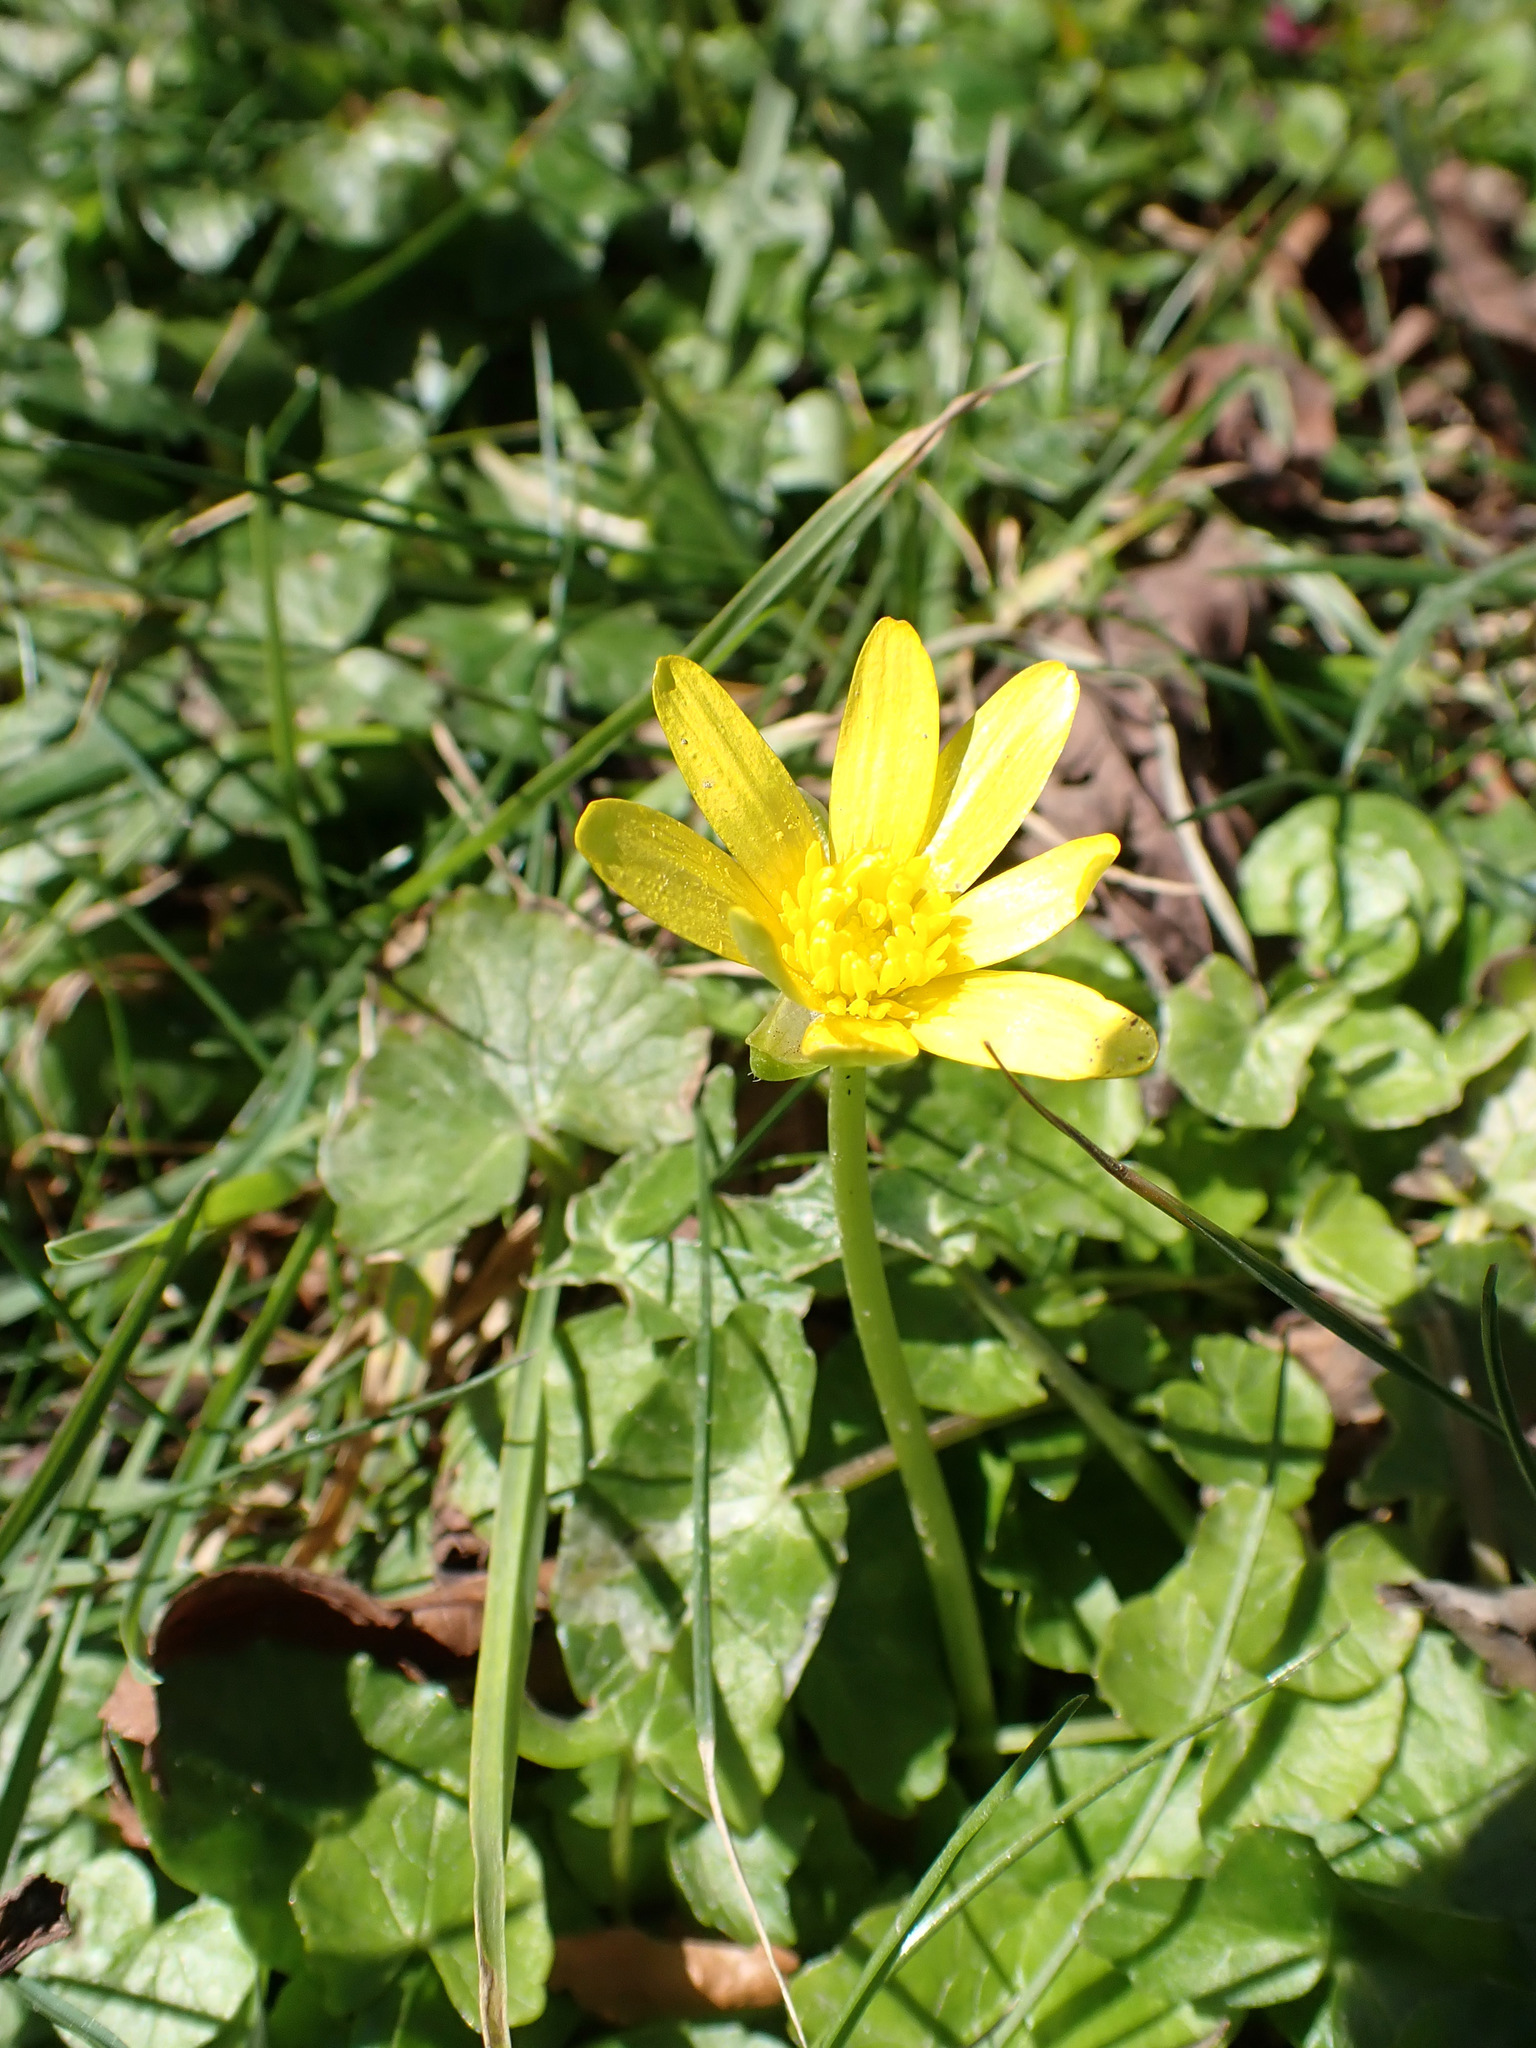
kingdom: Plantae
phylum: Tracheophyta
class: Magnoliopsida
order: Ranunculales
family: Ranunculaceae
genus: Ficaria
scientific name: Ficaria verna
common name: Lesser celandine
